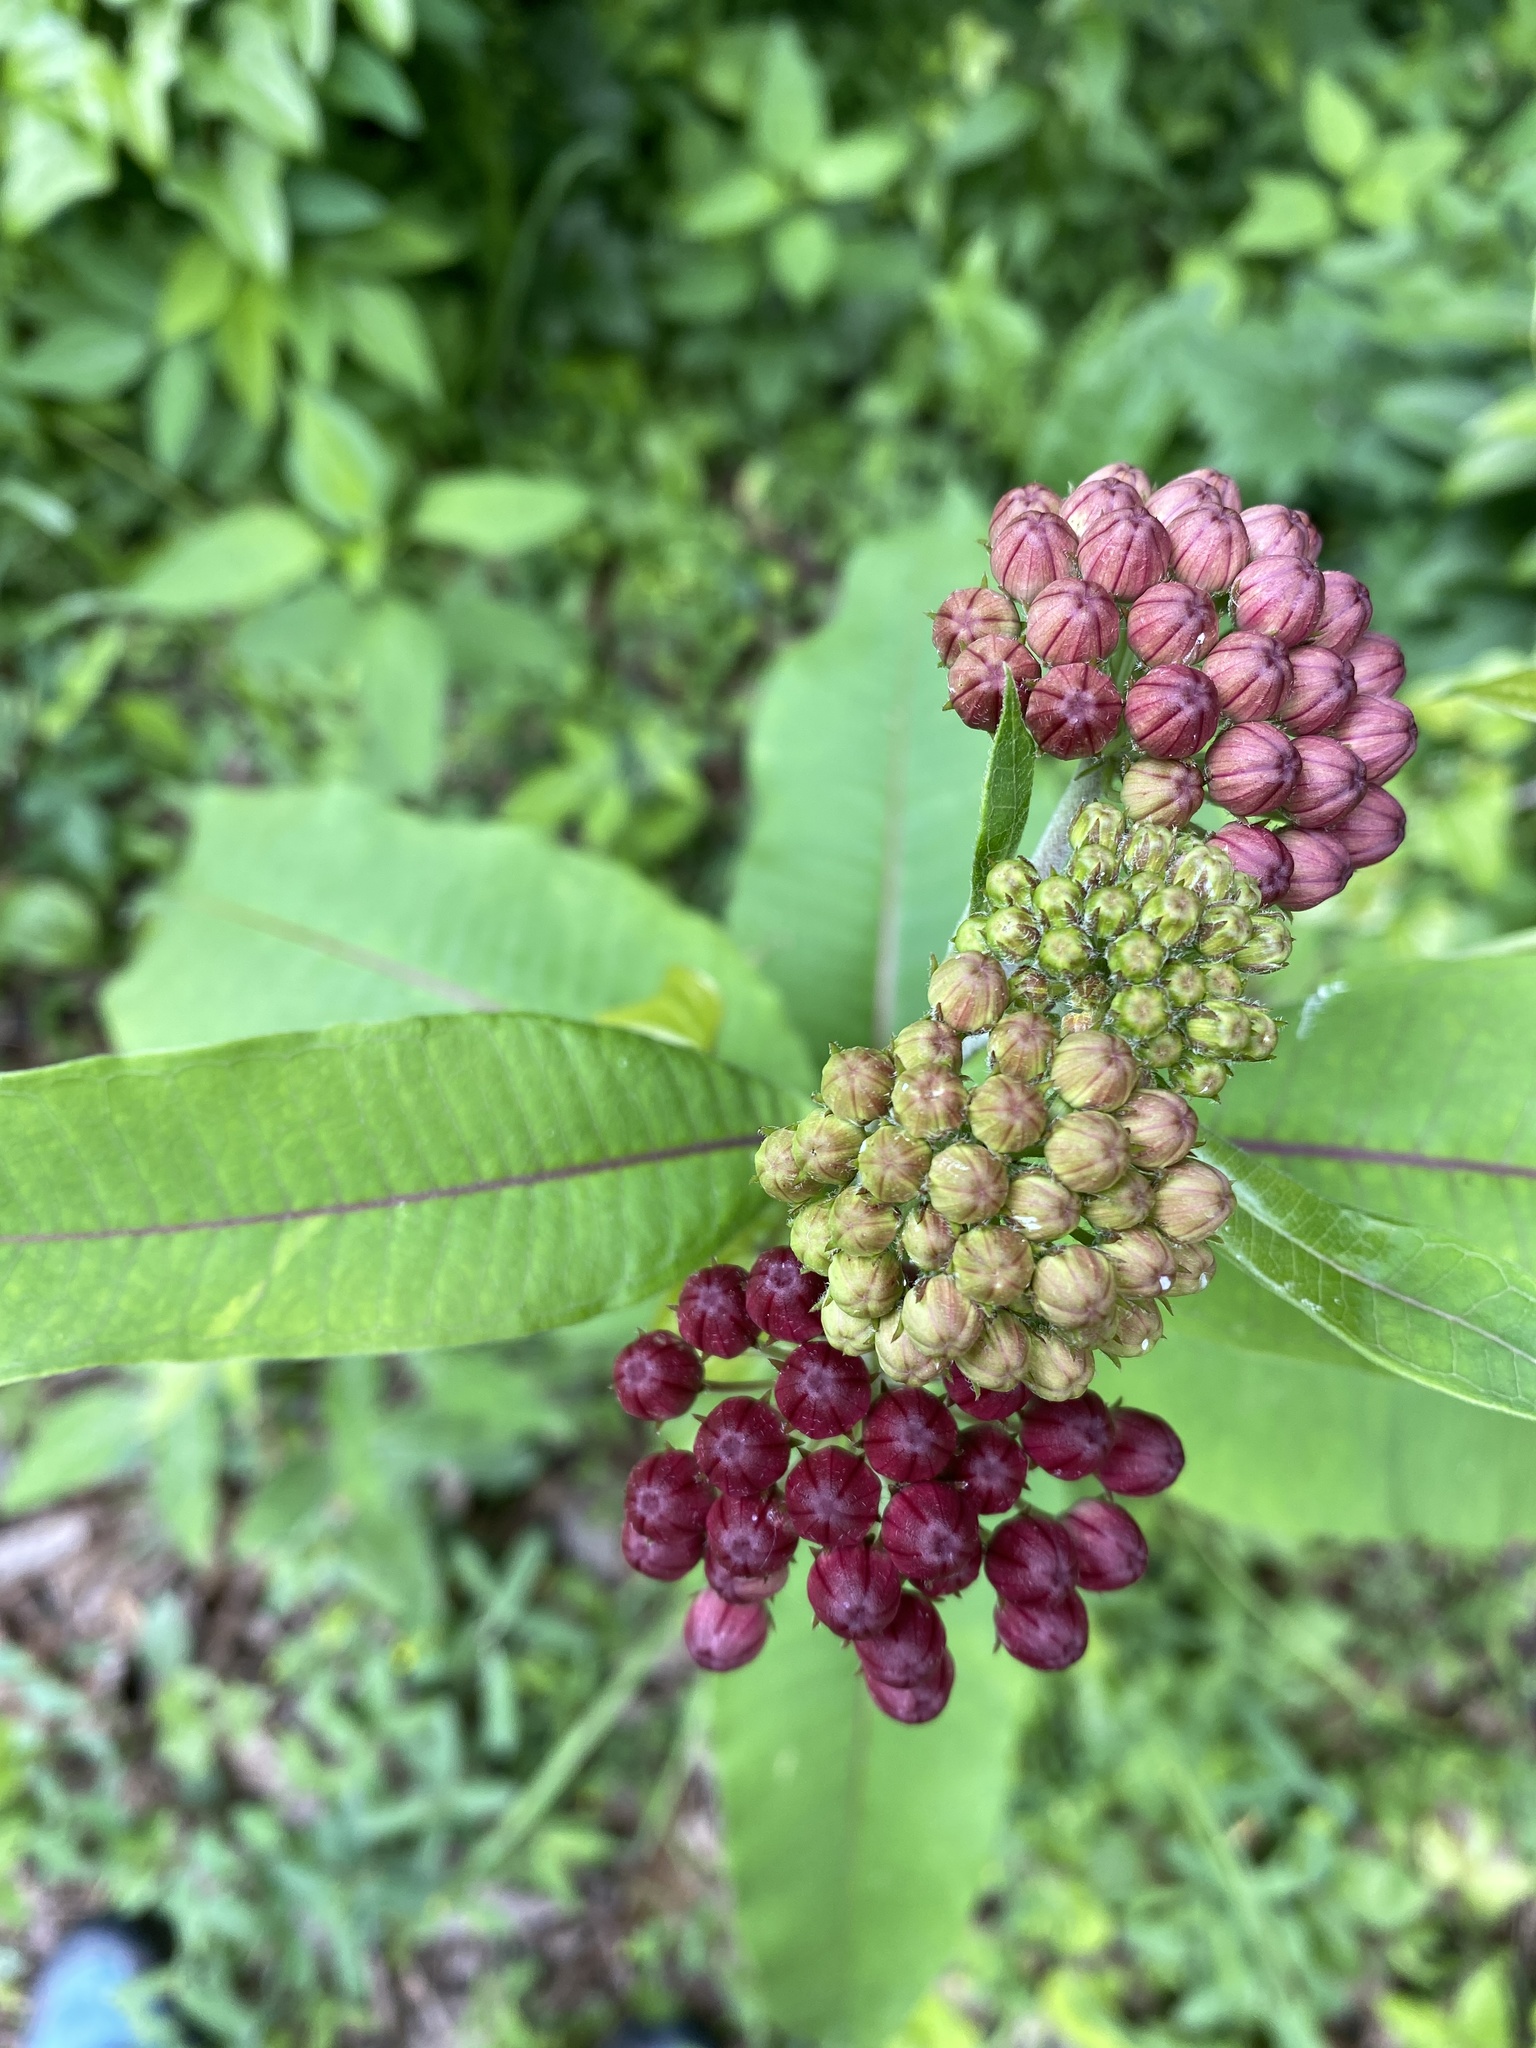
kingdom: Plantae
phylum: Tracheophyta
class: Magnoliopsida
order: Gentianales
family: Apocynaceae
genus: Asclepias
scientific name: Asclepias purpurascens
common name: Purple milkweed
